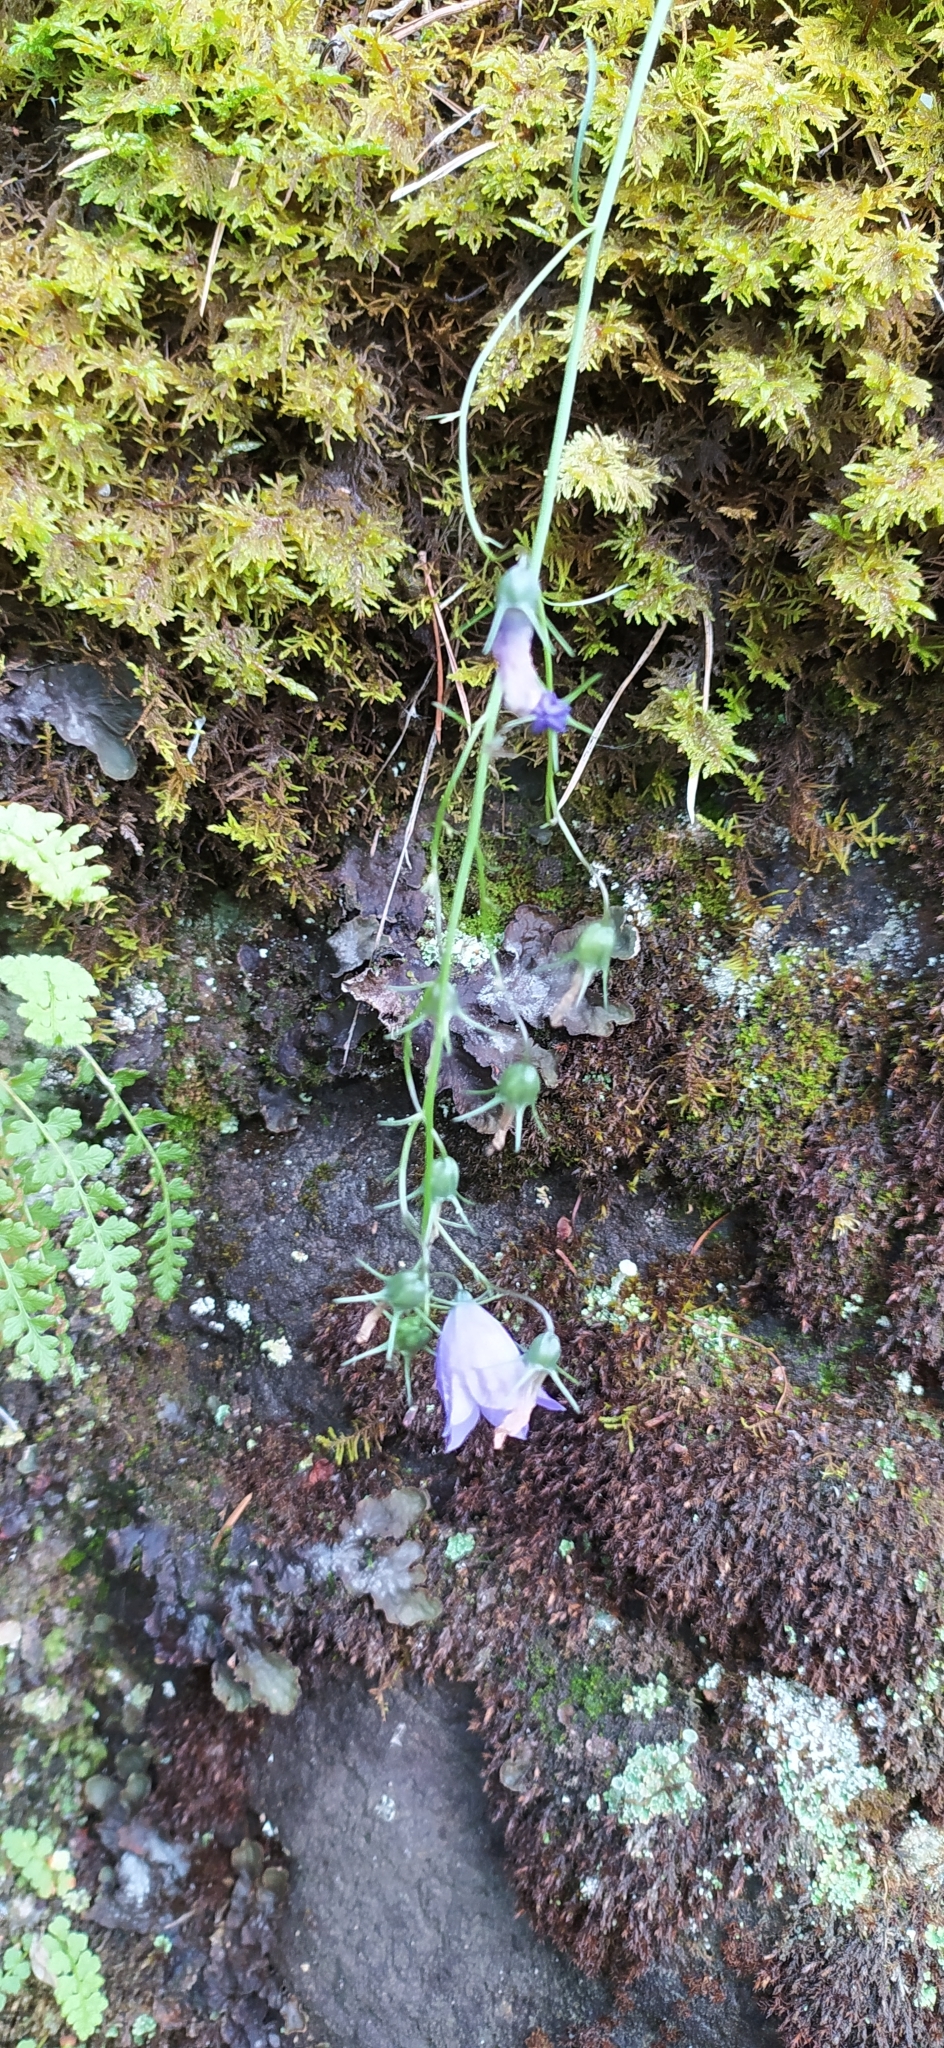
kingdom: Plantae
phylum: Tracheophyta
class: Magnoliopsida
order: Asterales
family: Campanulaceae
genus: Campanula
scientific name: Campanula rotundifolia
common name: Harebell
